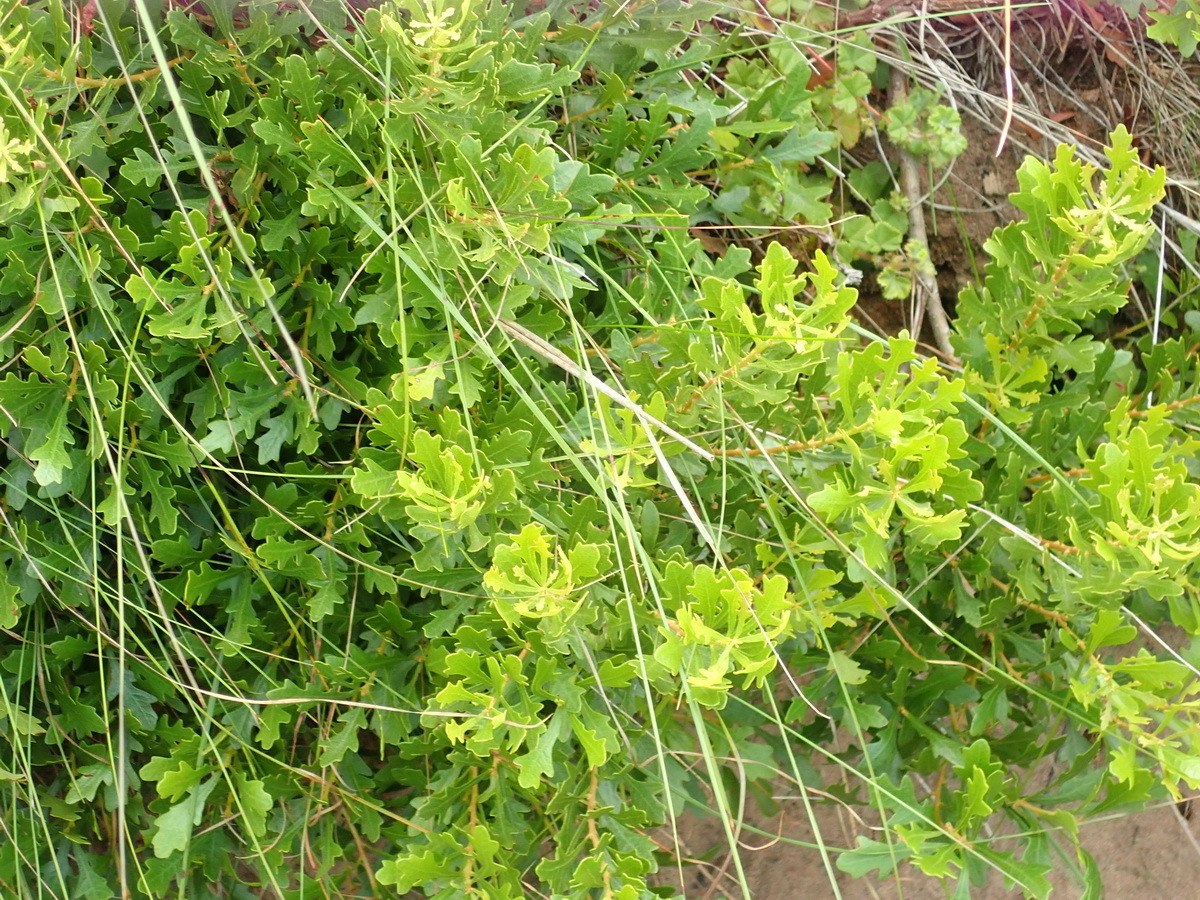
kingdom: Plantae
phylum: Tracheophyta
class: Magnoliopsida
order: Fagales
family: Myricaceae
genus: Morella
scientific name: Morella quercifolia
